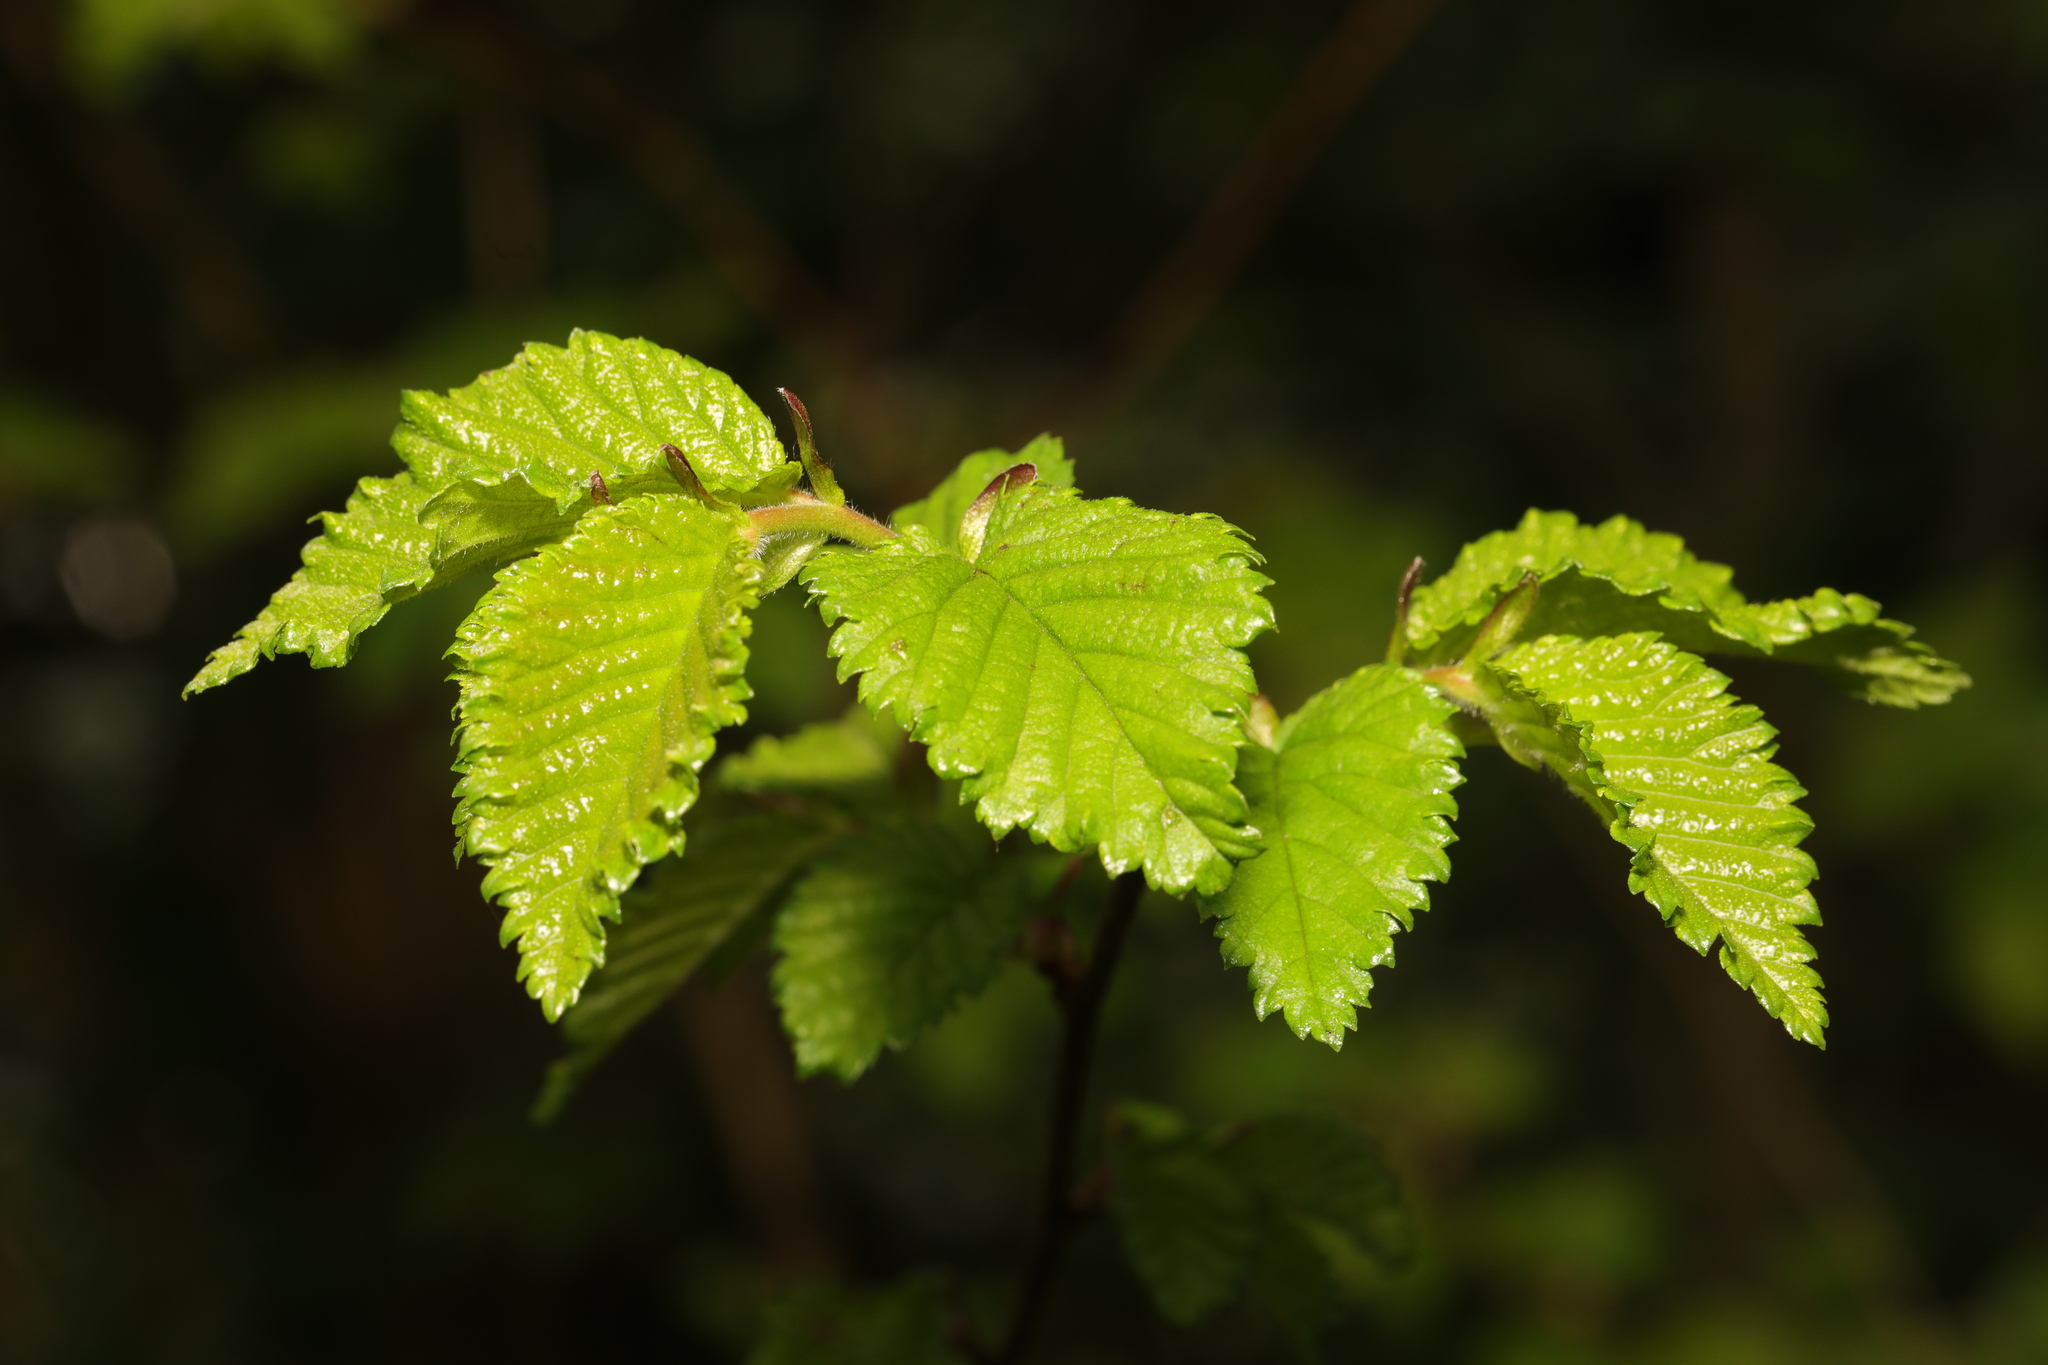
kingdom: Plantae
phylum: Tracheophyta
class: Magnoliopsida
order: Rosales
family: Ulmaceae
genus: Ulmus
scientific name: Ulmus minor
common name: Small-leaved elm
